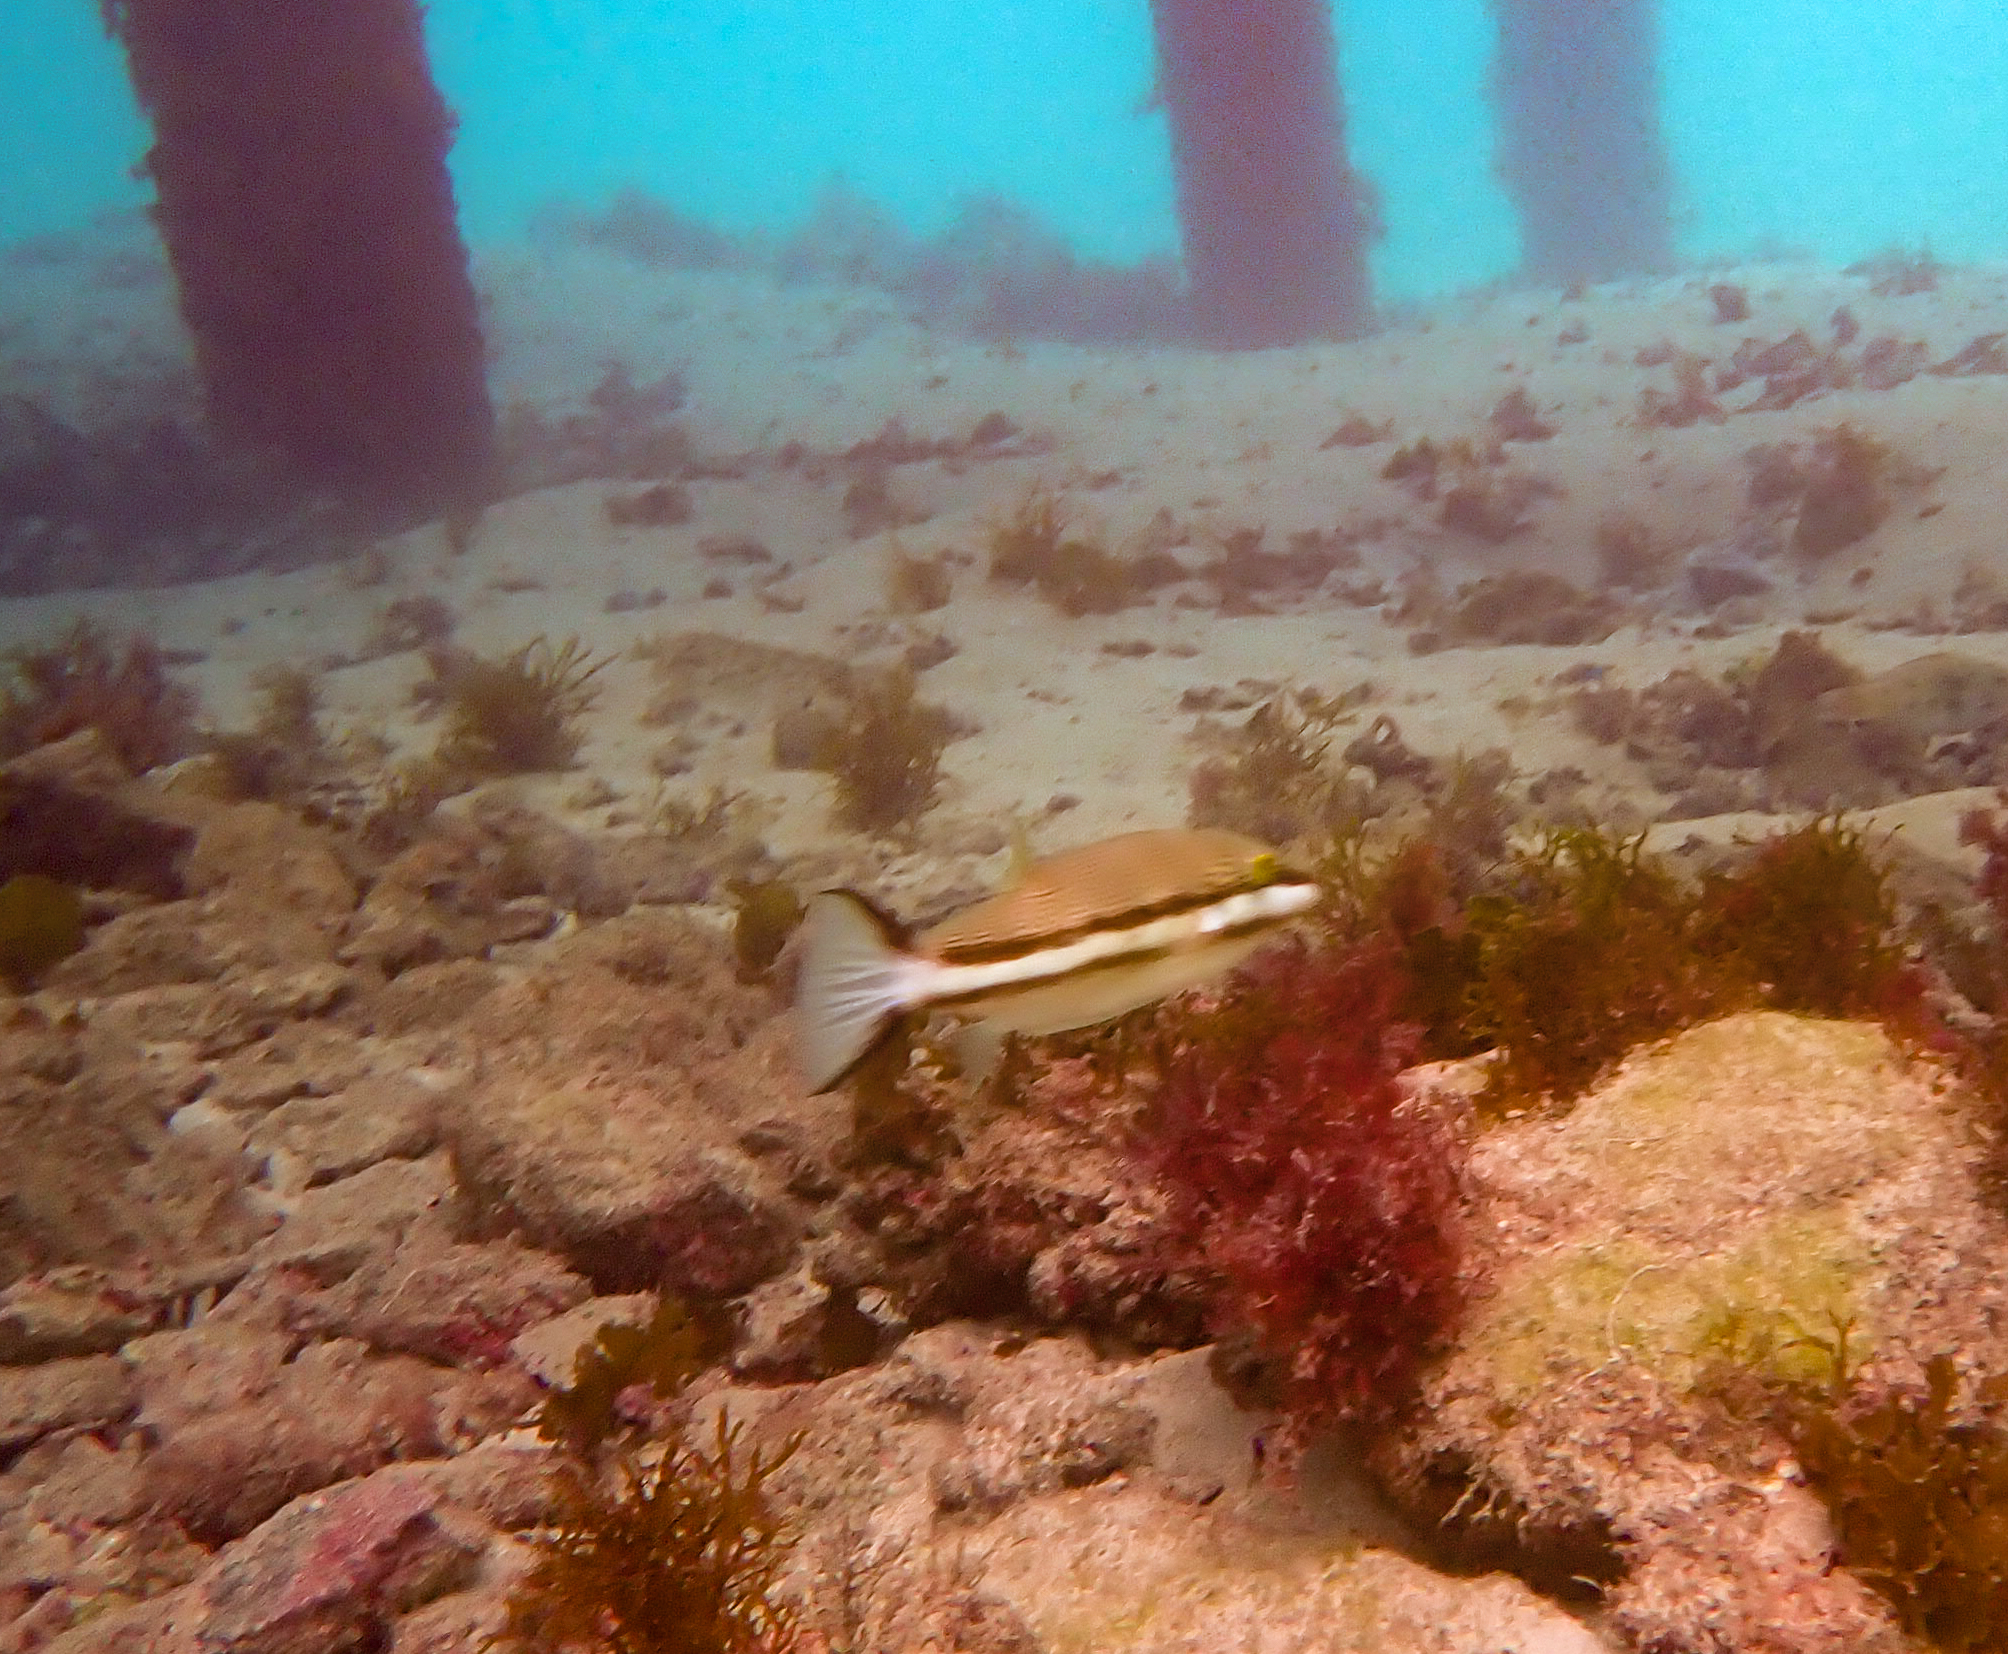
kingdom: Animalia
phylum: Chordata
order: Tetraodontiformes
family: Tetraodontidae
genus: Canthigaster
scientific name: Canthigaster callisterna
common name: Clown toado
